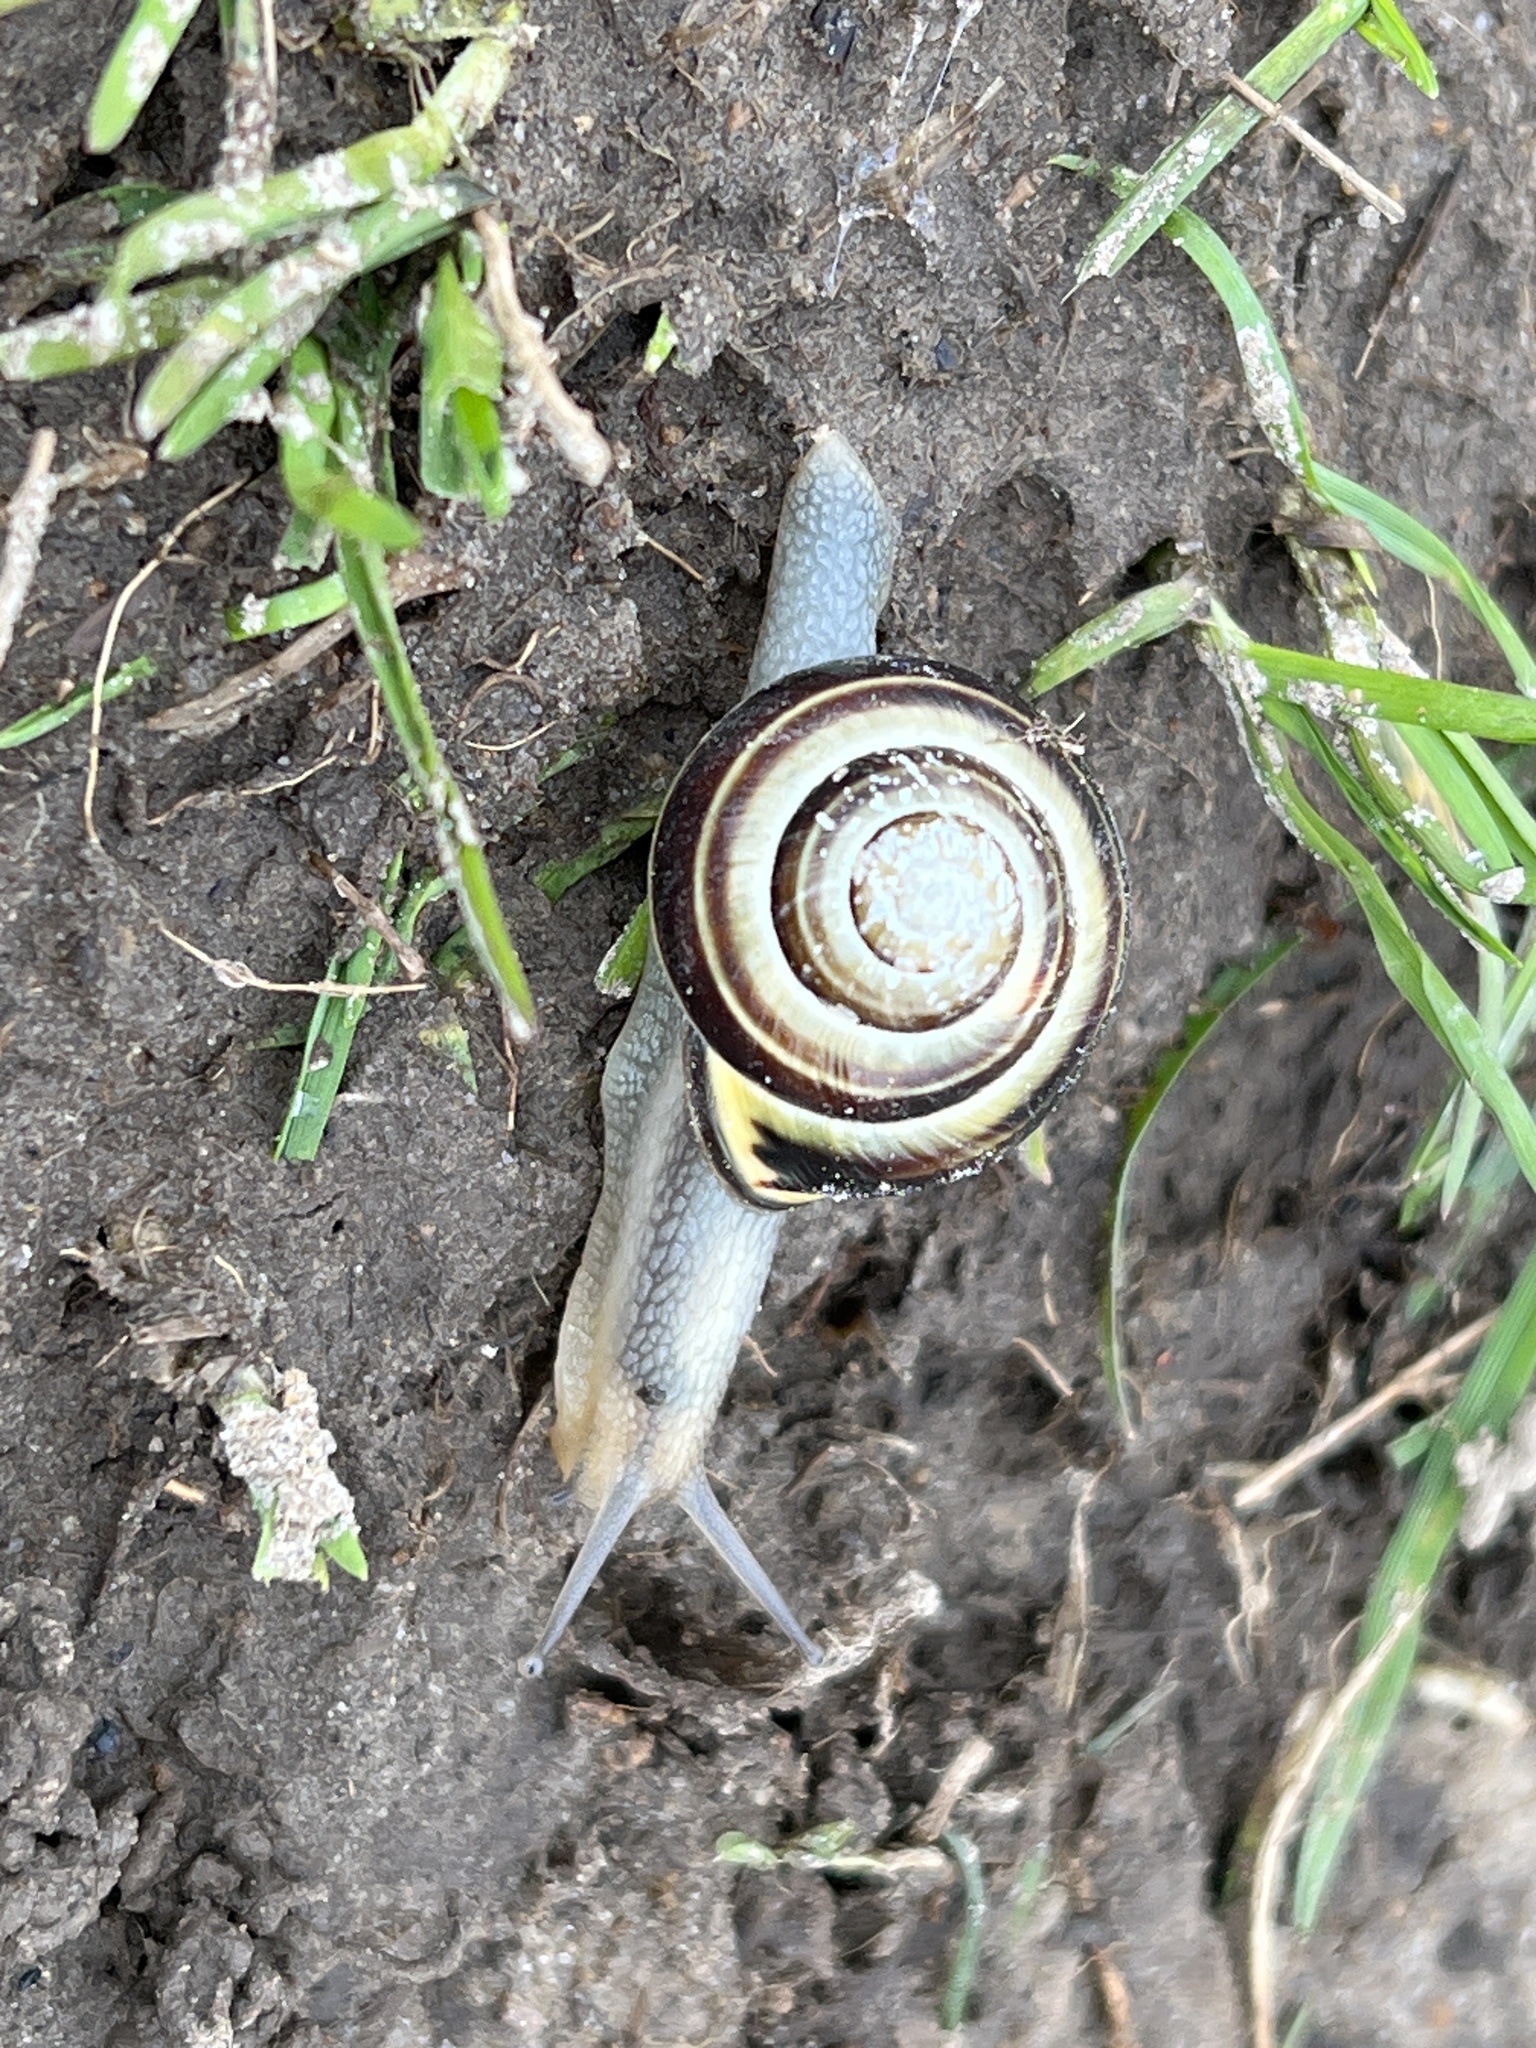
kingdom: Animalia
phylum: Mollusca
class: Gastropoda
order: Stylommatophora
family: Helicidae
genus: Cepaea
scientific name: Cepaea nemoralis
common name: Grovesnail
